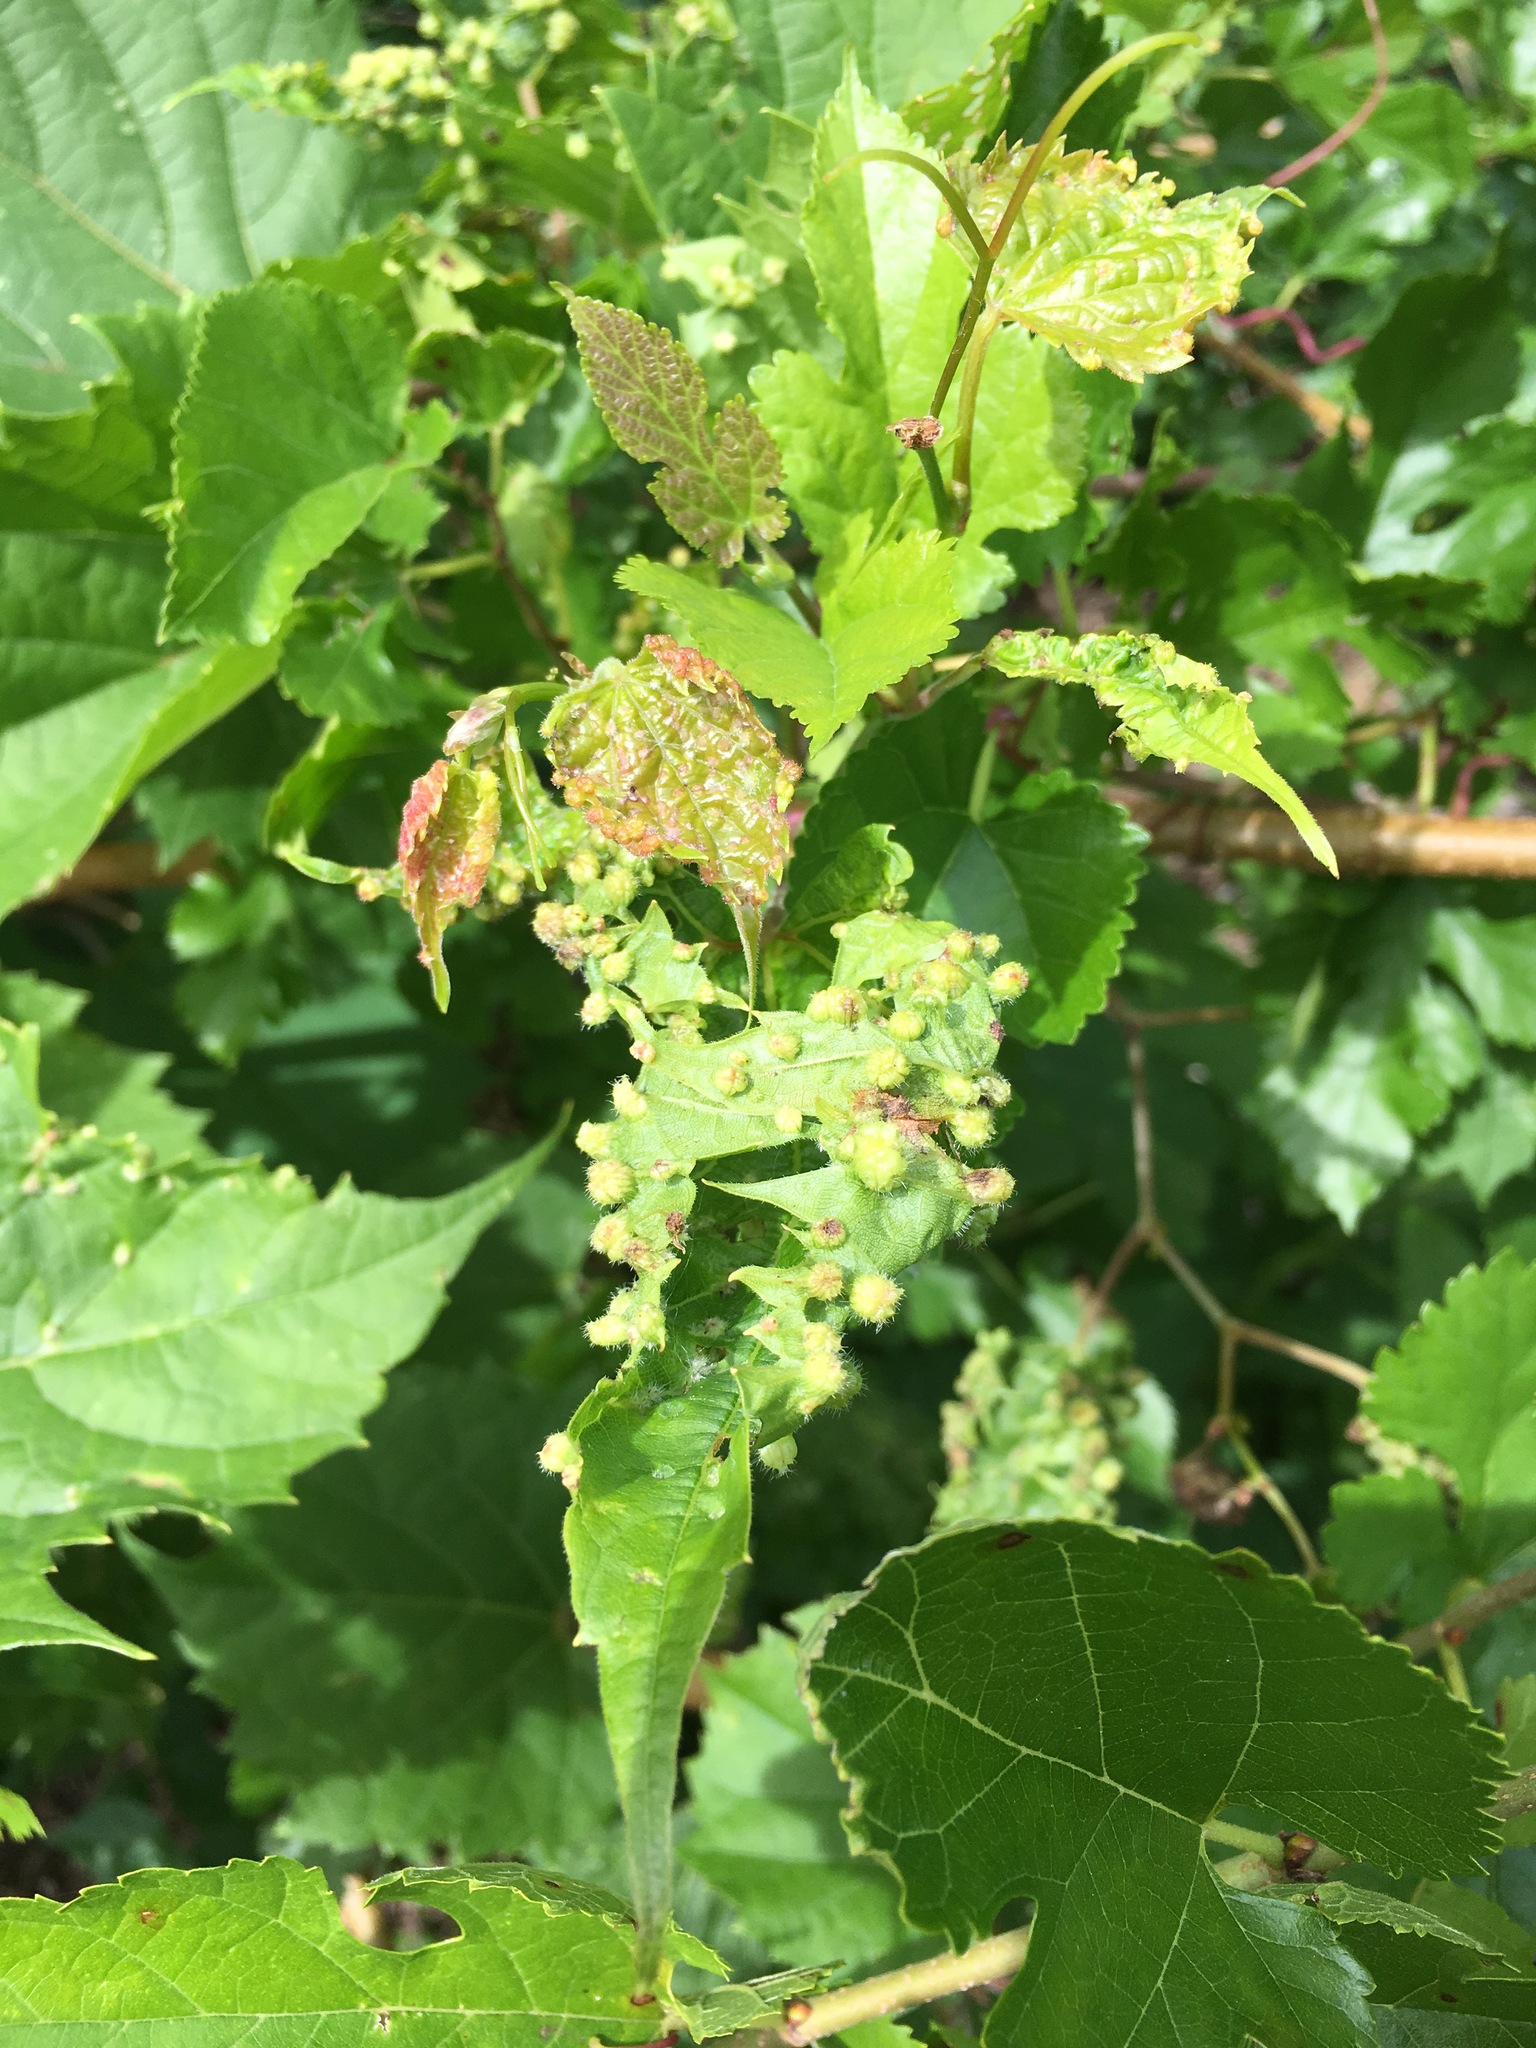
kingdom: Animalia
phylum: Arthropoda
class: Insecta
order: Hemiptera
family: Phylloxeridae
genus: Daktulosphaira
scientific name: Daktulosphaira vitifoliae
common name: Grape phylloxera
